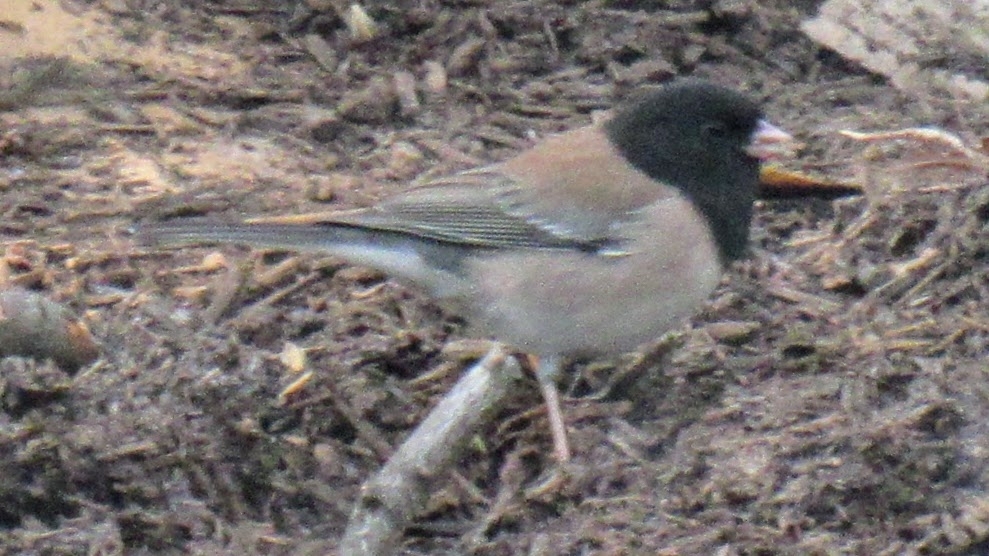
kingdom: Animalia
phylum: Chordata
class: Aves
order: Passeriformes
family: Passerellidae
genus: Junco
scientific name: Junco hyemalis
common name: Dark-eyed junco
